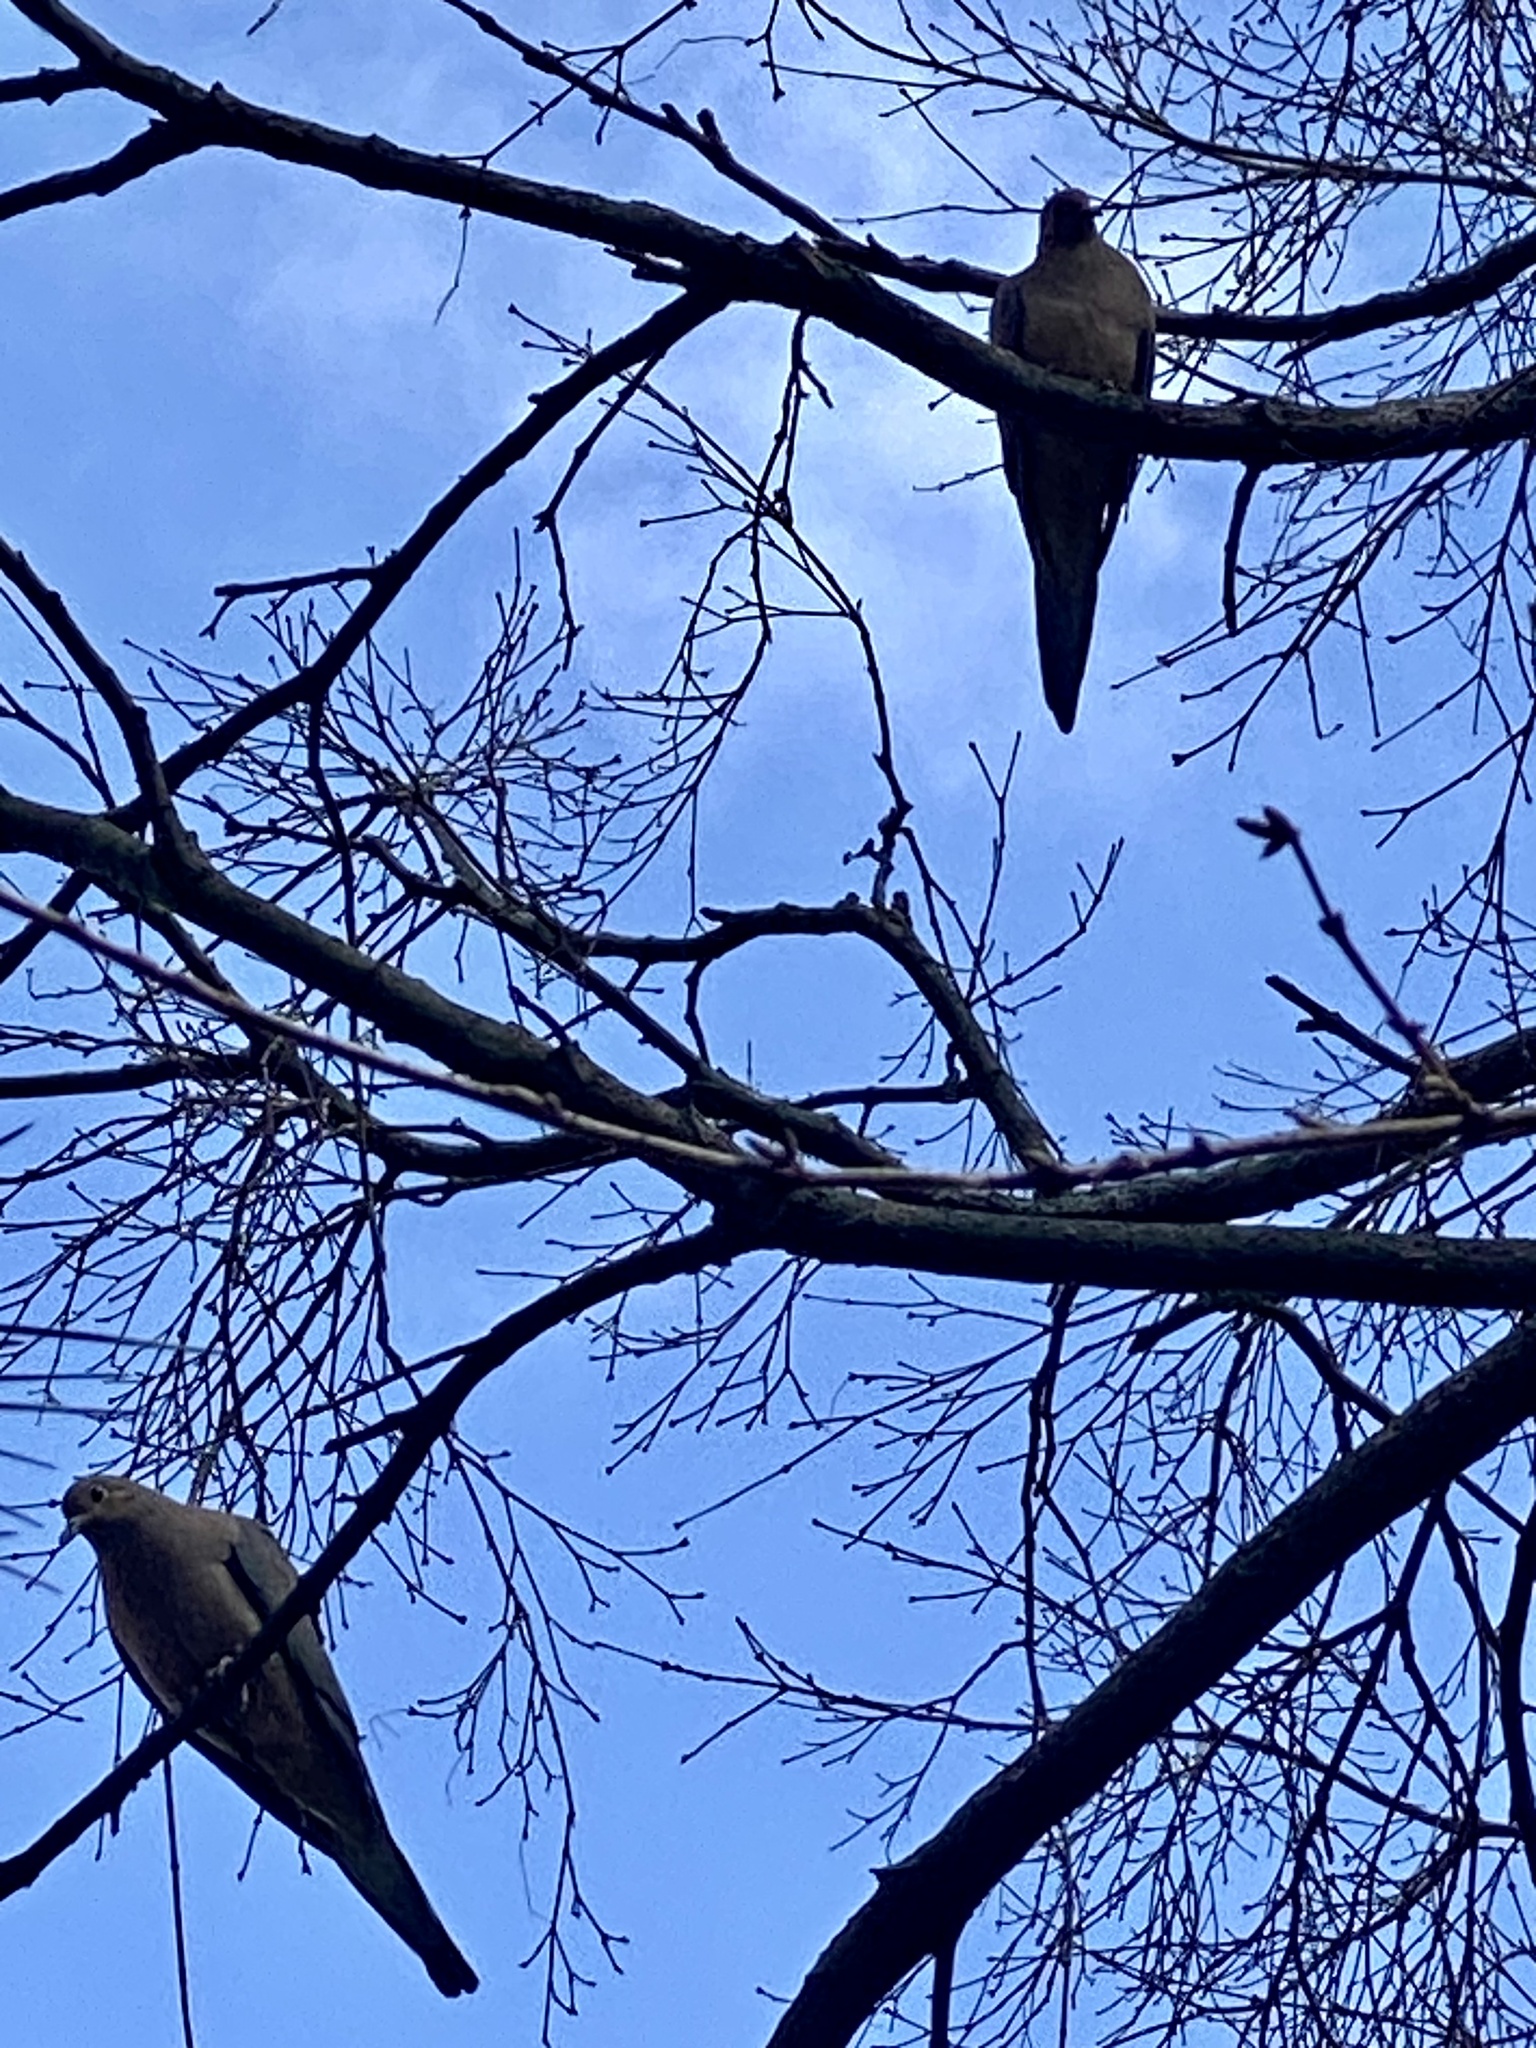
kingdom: Animalia
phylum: Chordata
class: Aves
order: Columbiformes
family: Columbidae
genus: Zenaida
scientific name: Zenaida macroura
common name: Mourning dove
